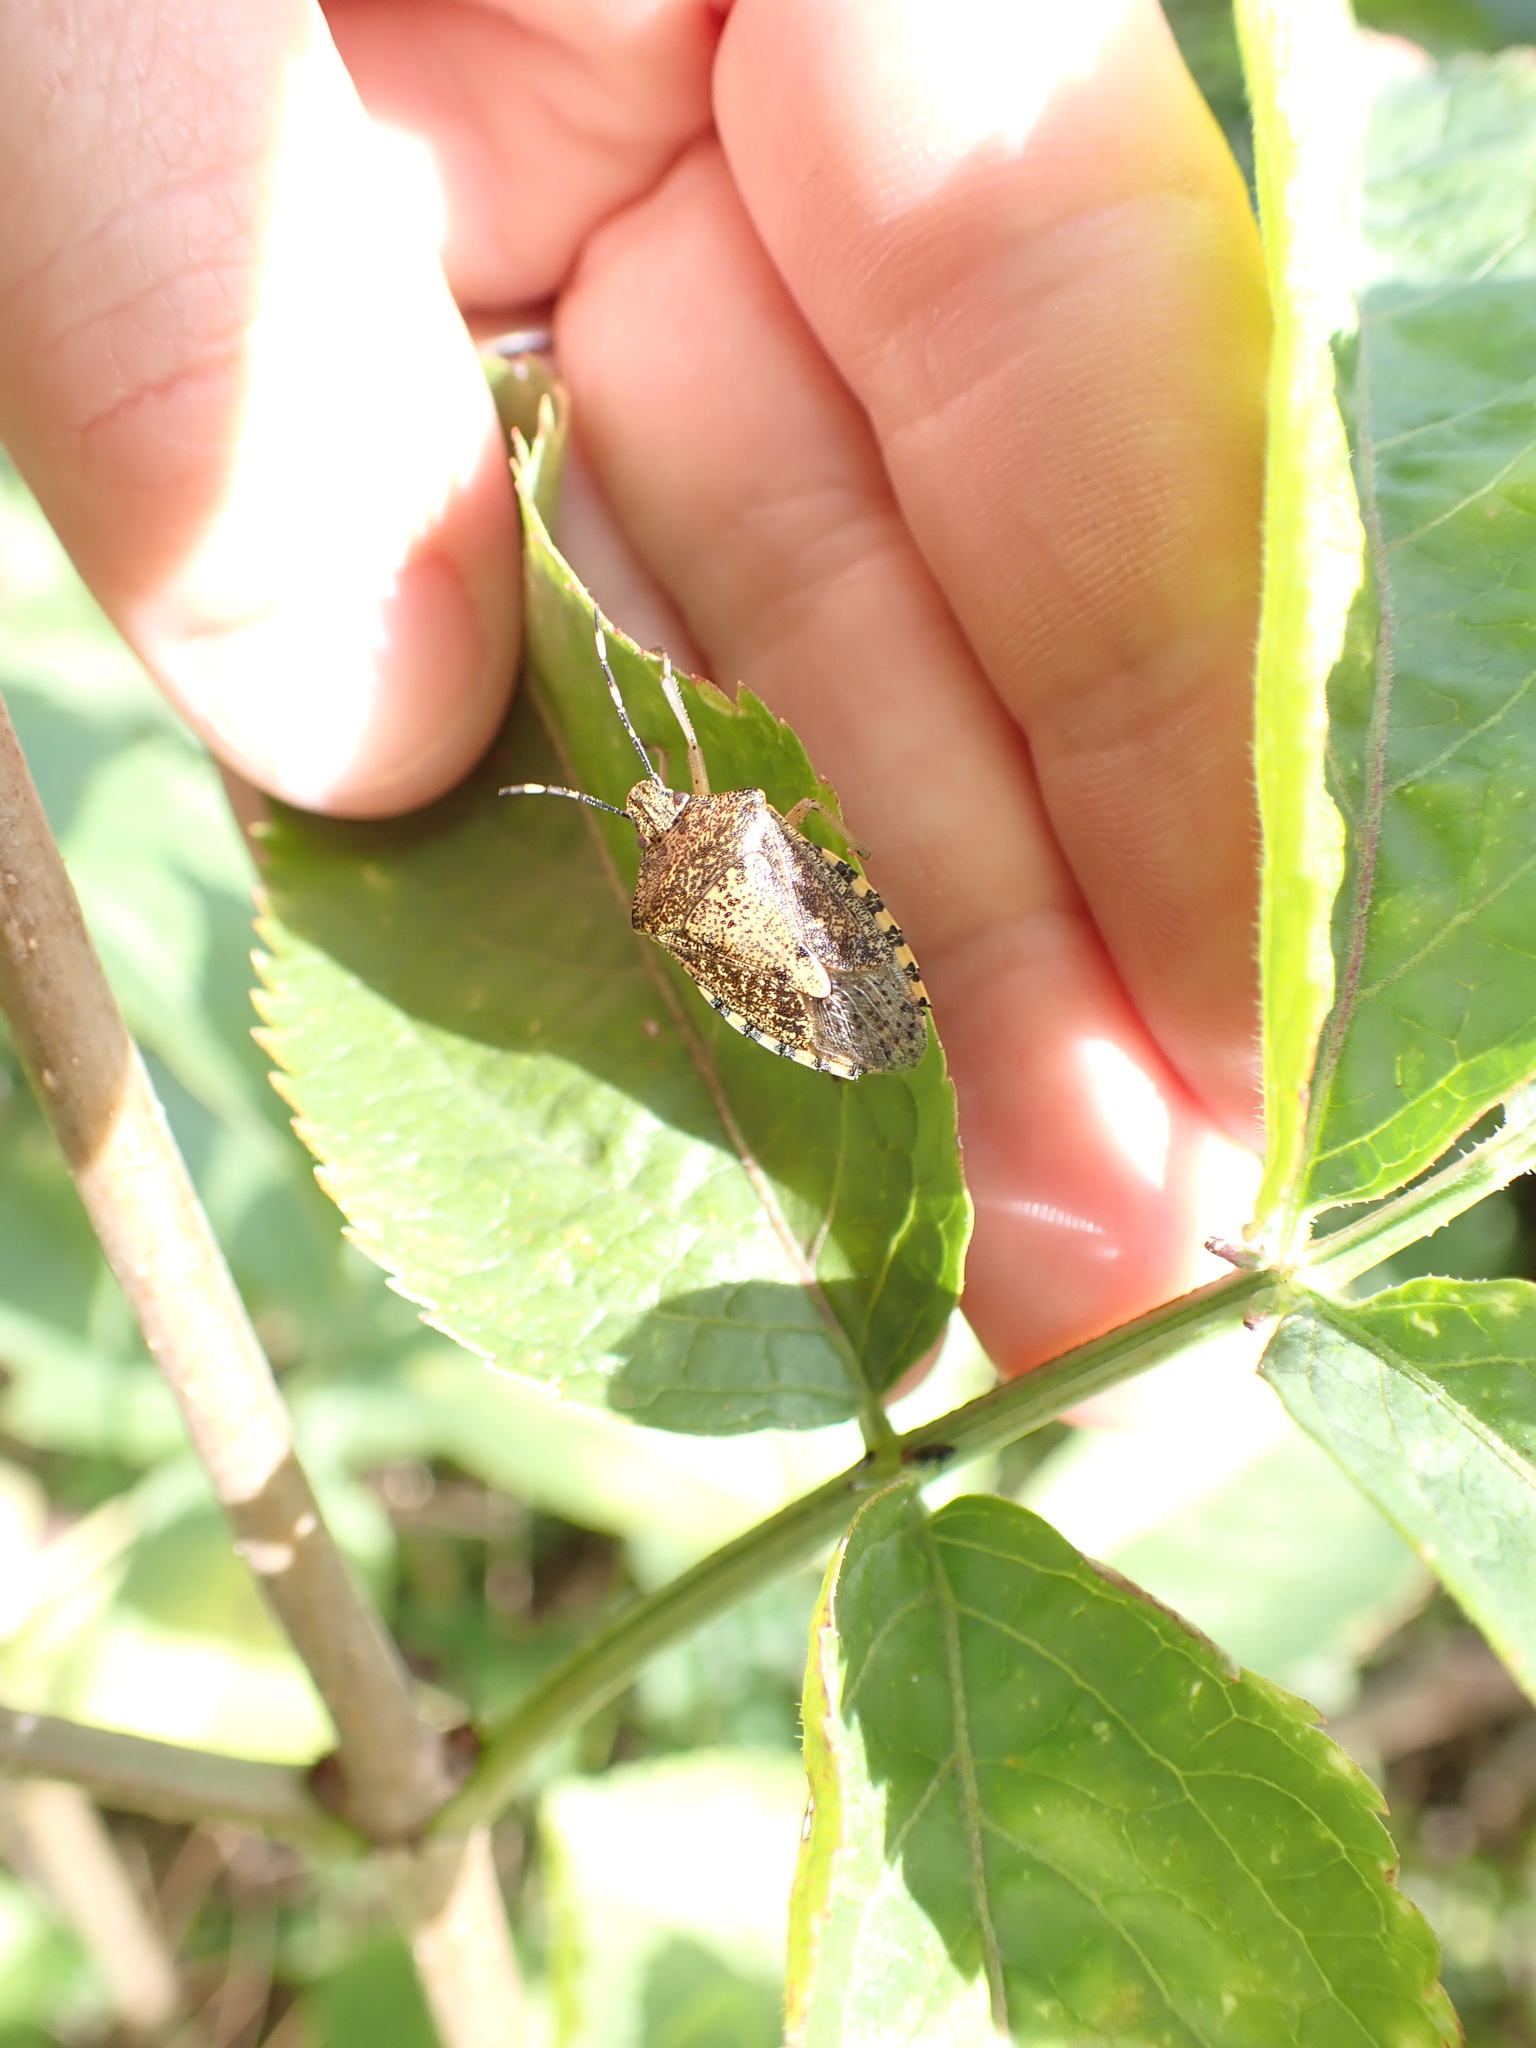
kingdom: Animalia
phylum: Arthropoda
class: Insecta
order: Hemiptera
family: Pentatomidae
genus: Rhaphigaster
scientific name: Rhaphigaster nebulosa
